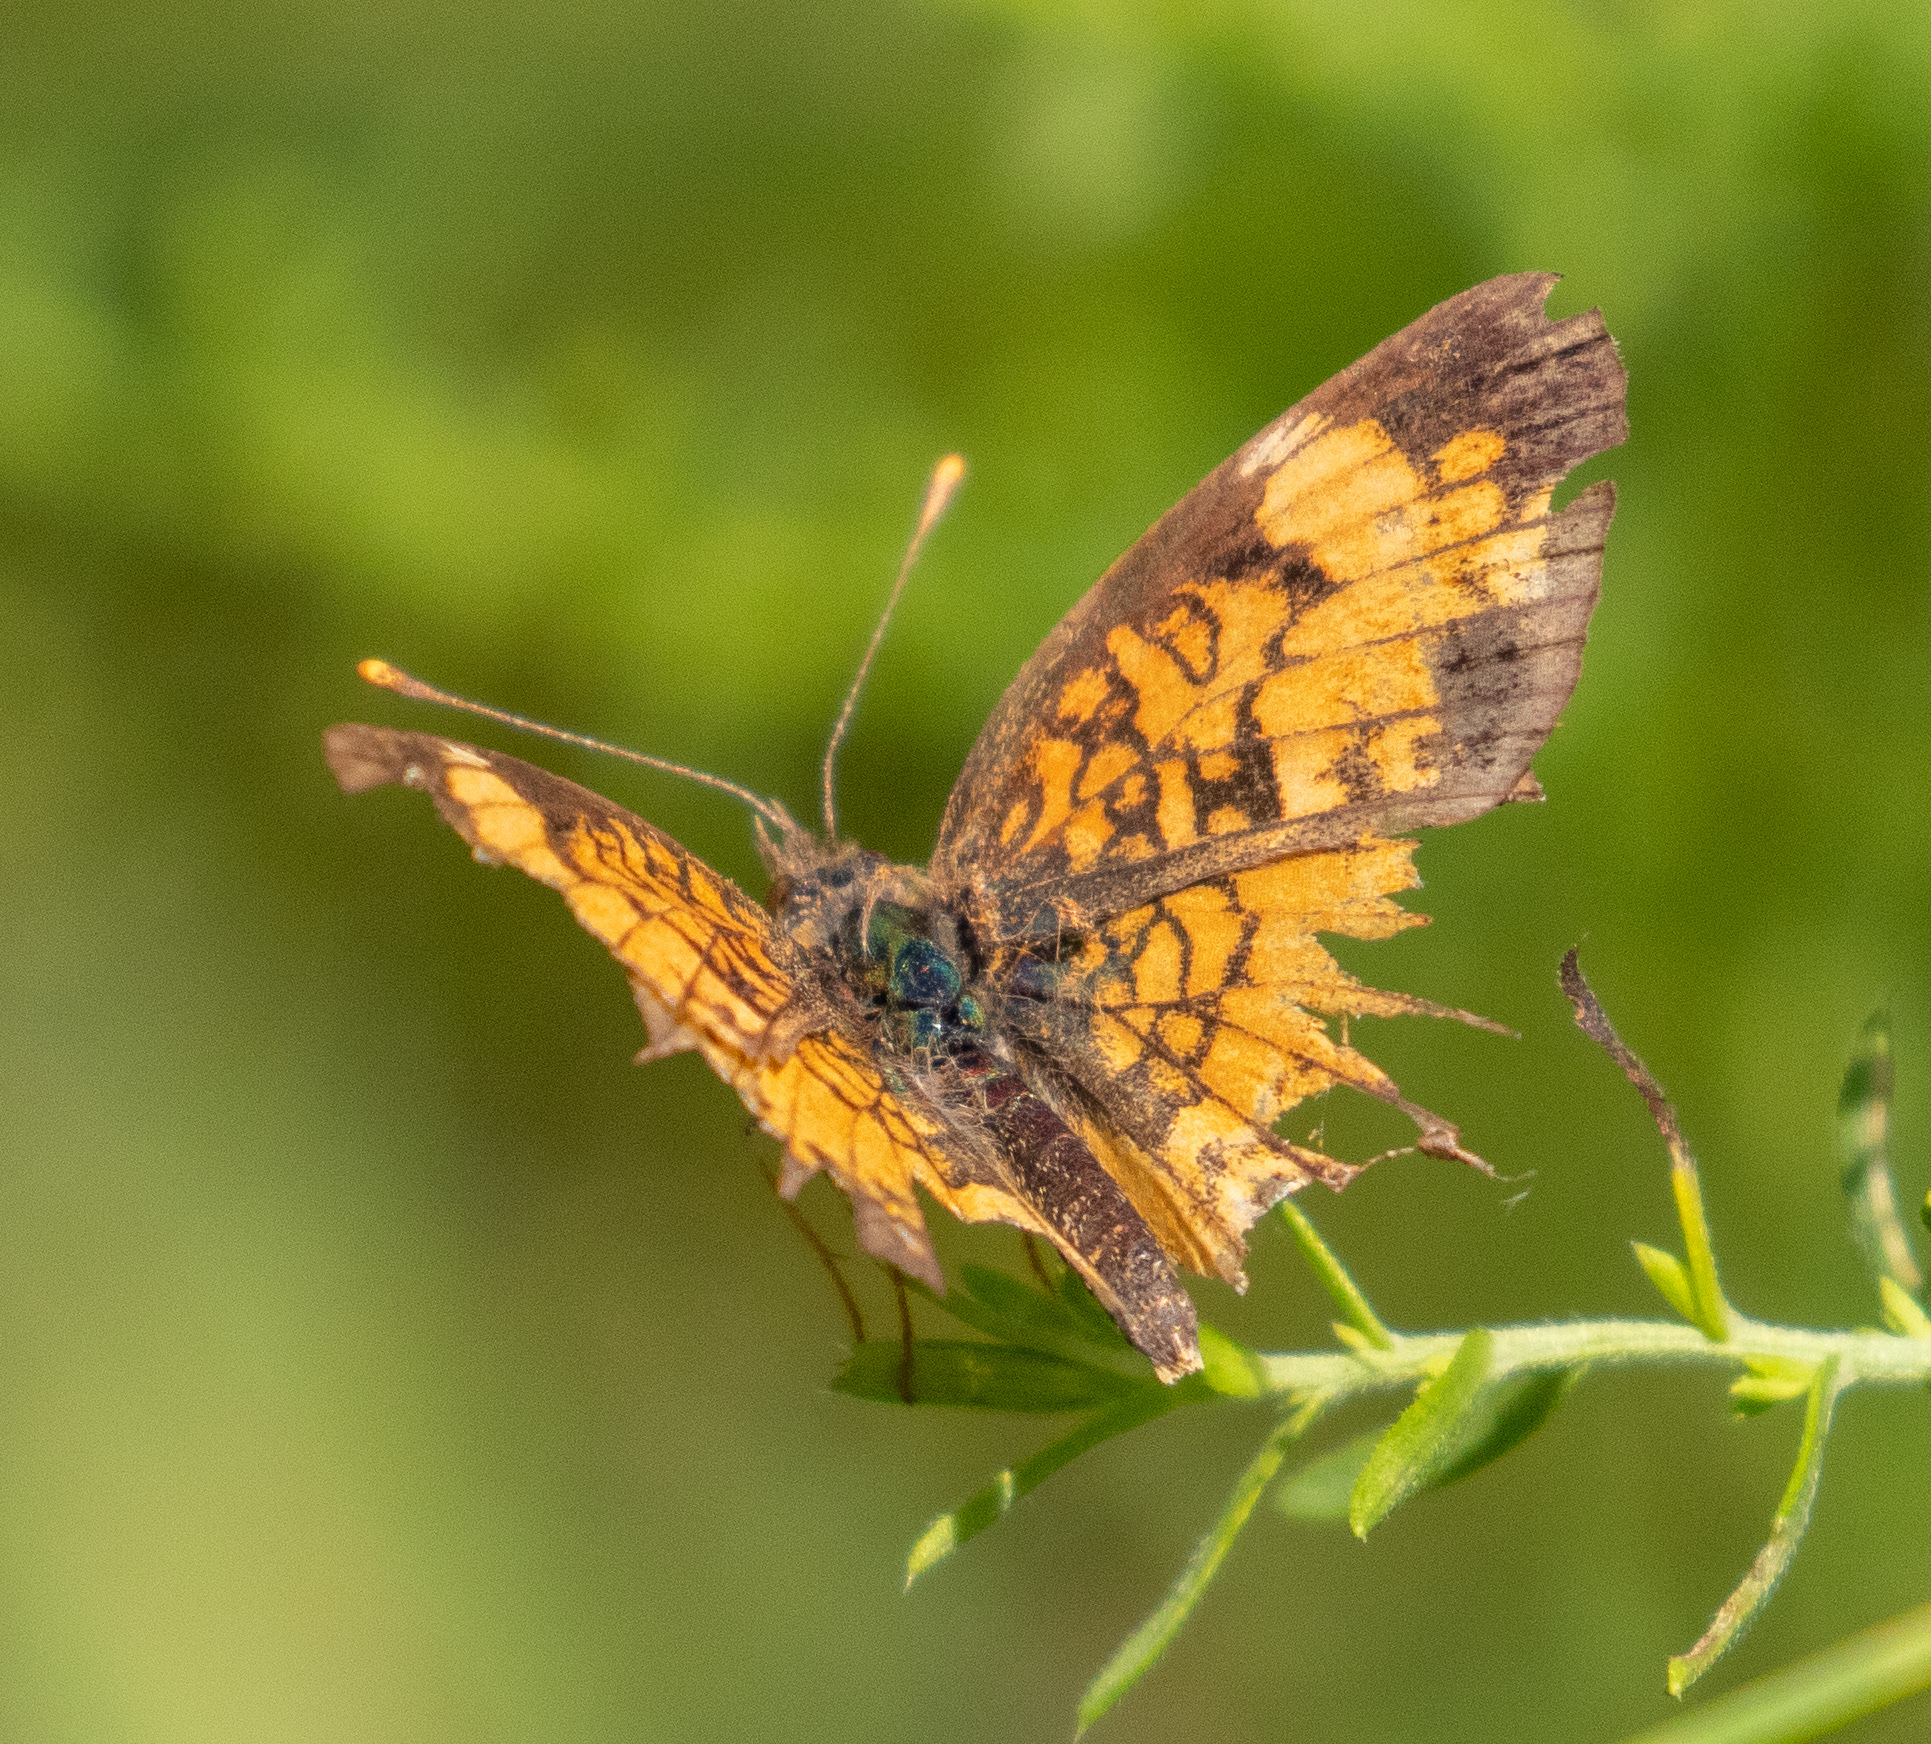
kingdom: Animalia
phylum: Arthropoda
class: Insecta
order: Lepidoptera
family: Nymphalidae
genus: Phyciodes
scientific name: Phyciodes tharos
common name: Pearl crescent
